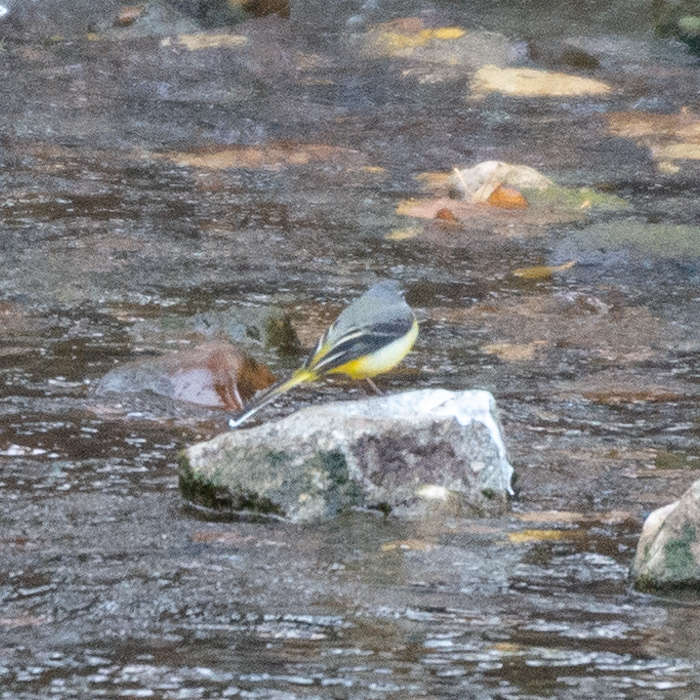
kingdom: Animalia
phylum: Chordata
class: Aves
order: Passeriformes
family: Motacillidae
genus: Motacilla
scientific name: Motacilla cinerea
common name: Grey wagtail
